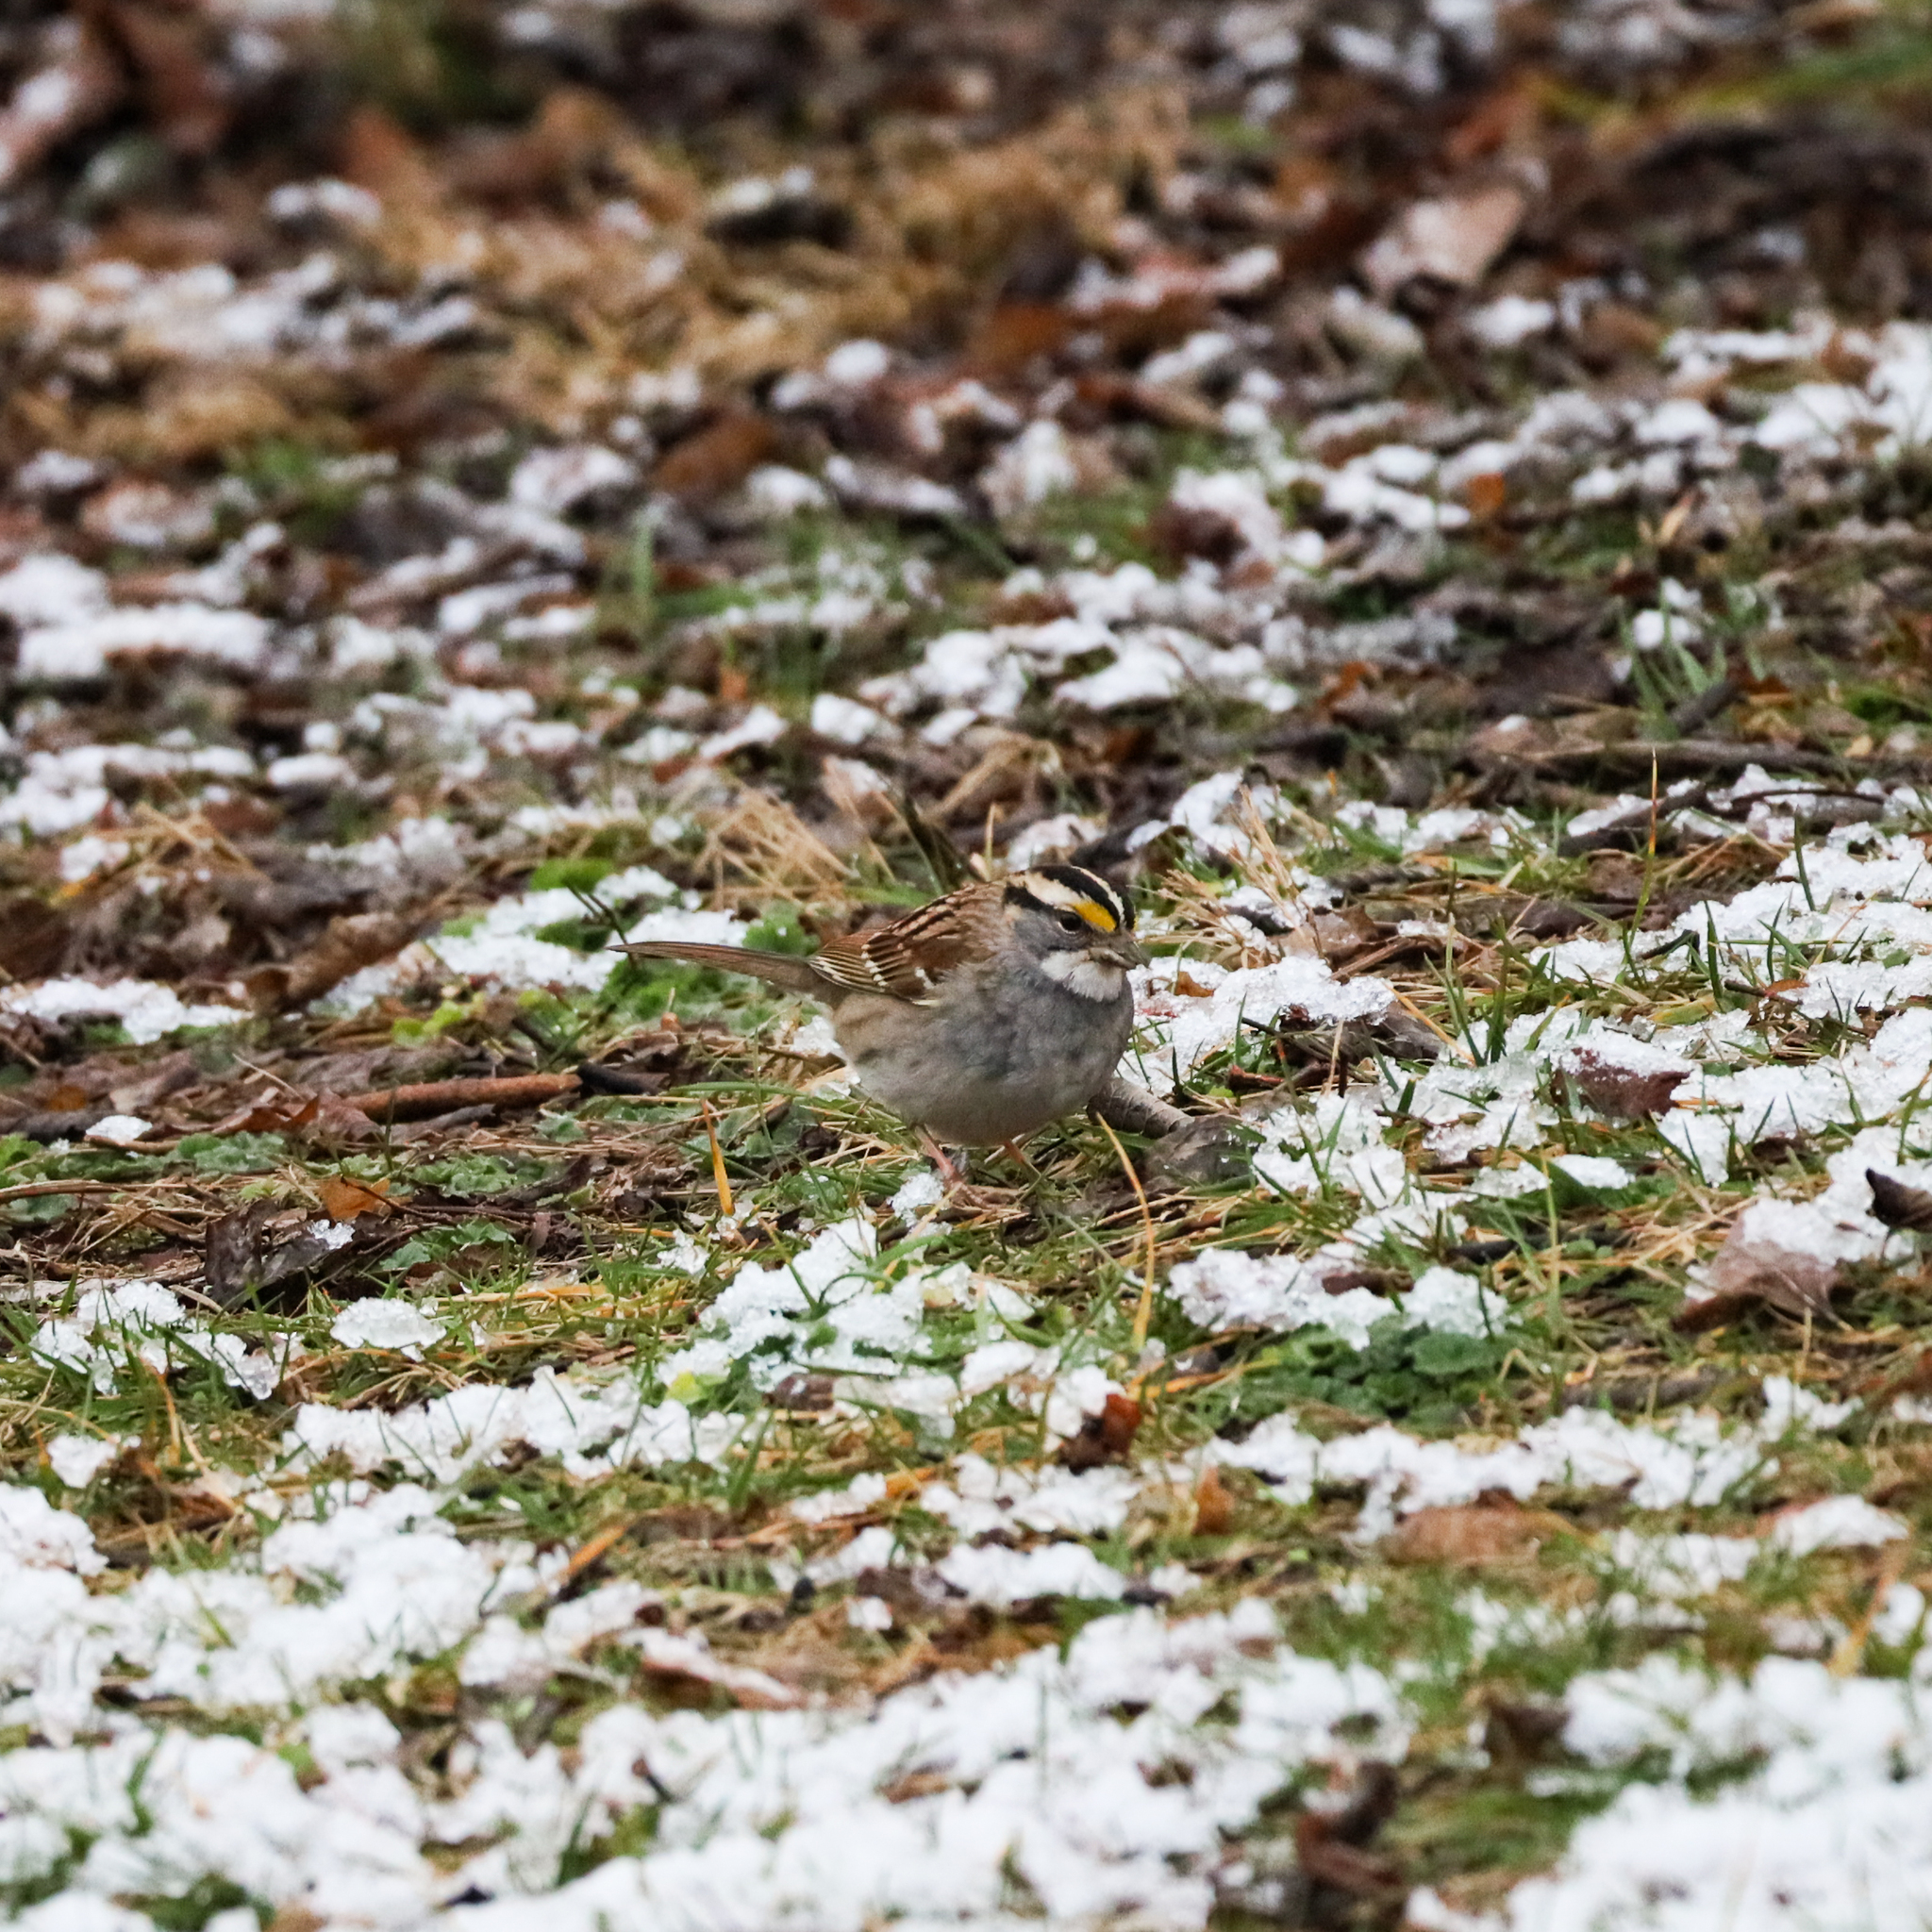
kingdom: Animalia
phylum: Chordata
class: Aves
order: Passeriformes
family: Passerellidae
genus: Zonotrichia
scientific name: Zonotrichia albicollis
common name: White-throated sparrow
